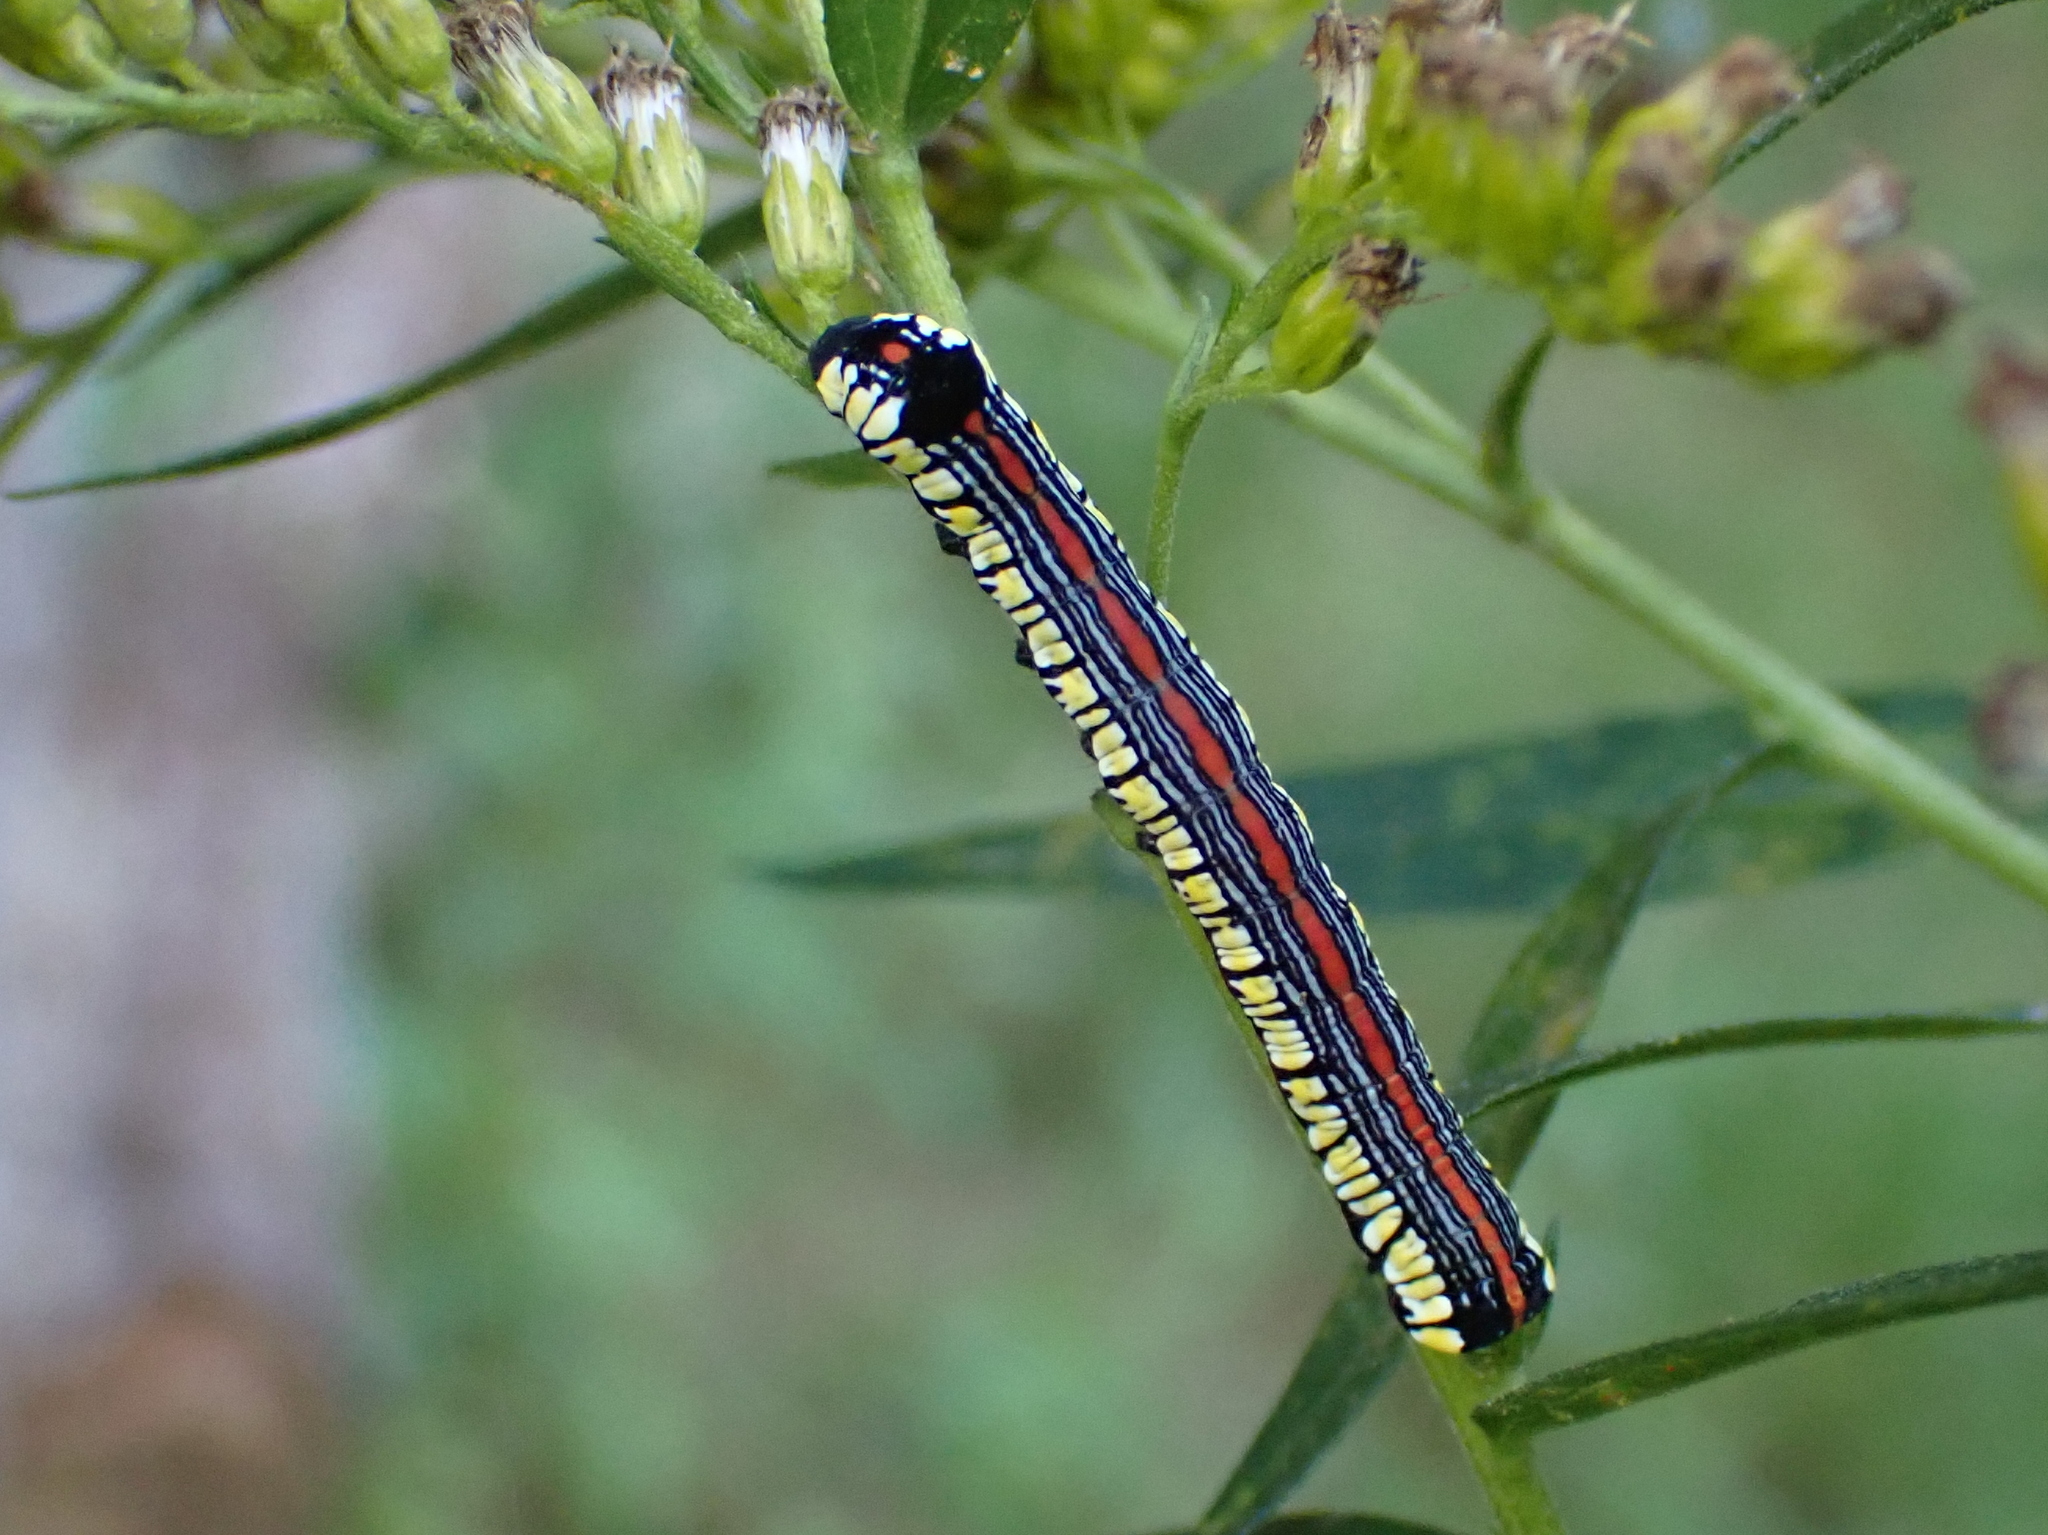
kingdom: Animalia
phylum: Arthropoda
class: Insecta
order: Lepidoptera
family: Noctuidae
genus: Cucullia
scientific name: Cucullia convexipennis
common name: Brown-hooded owlet
